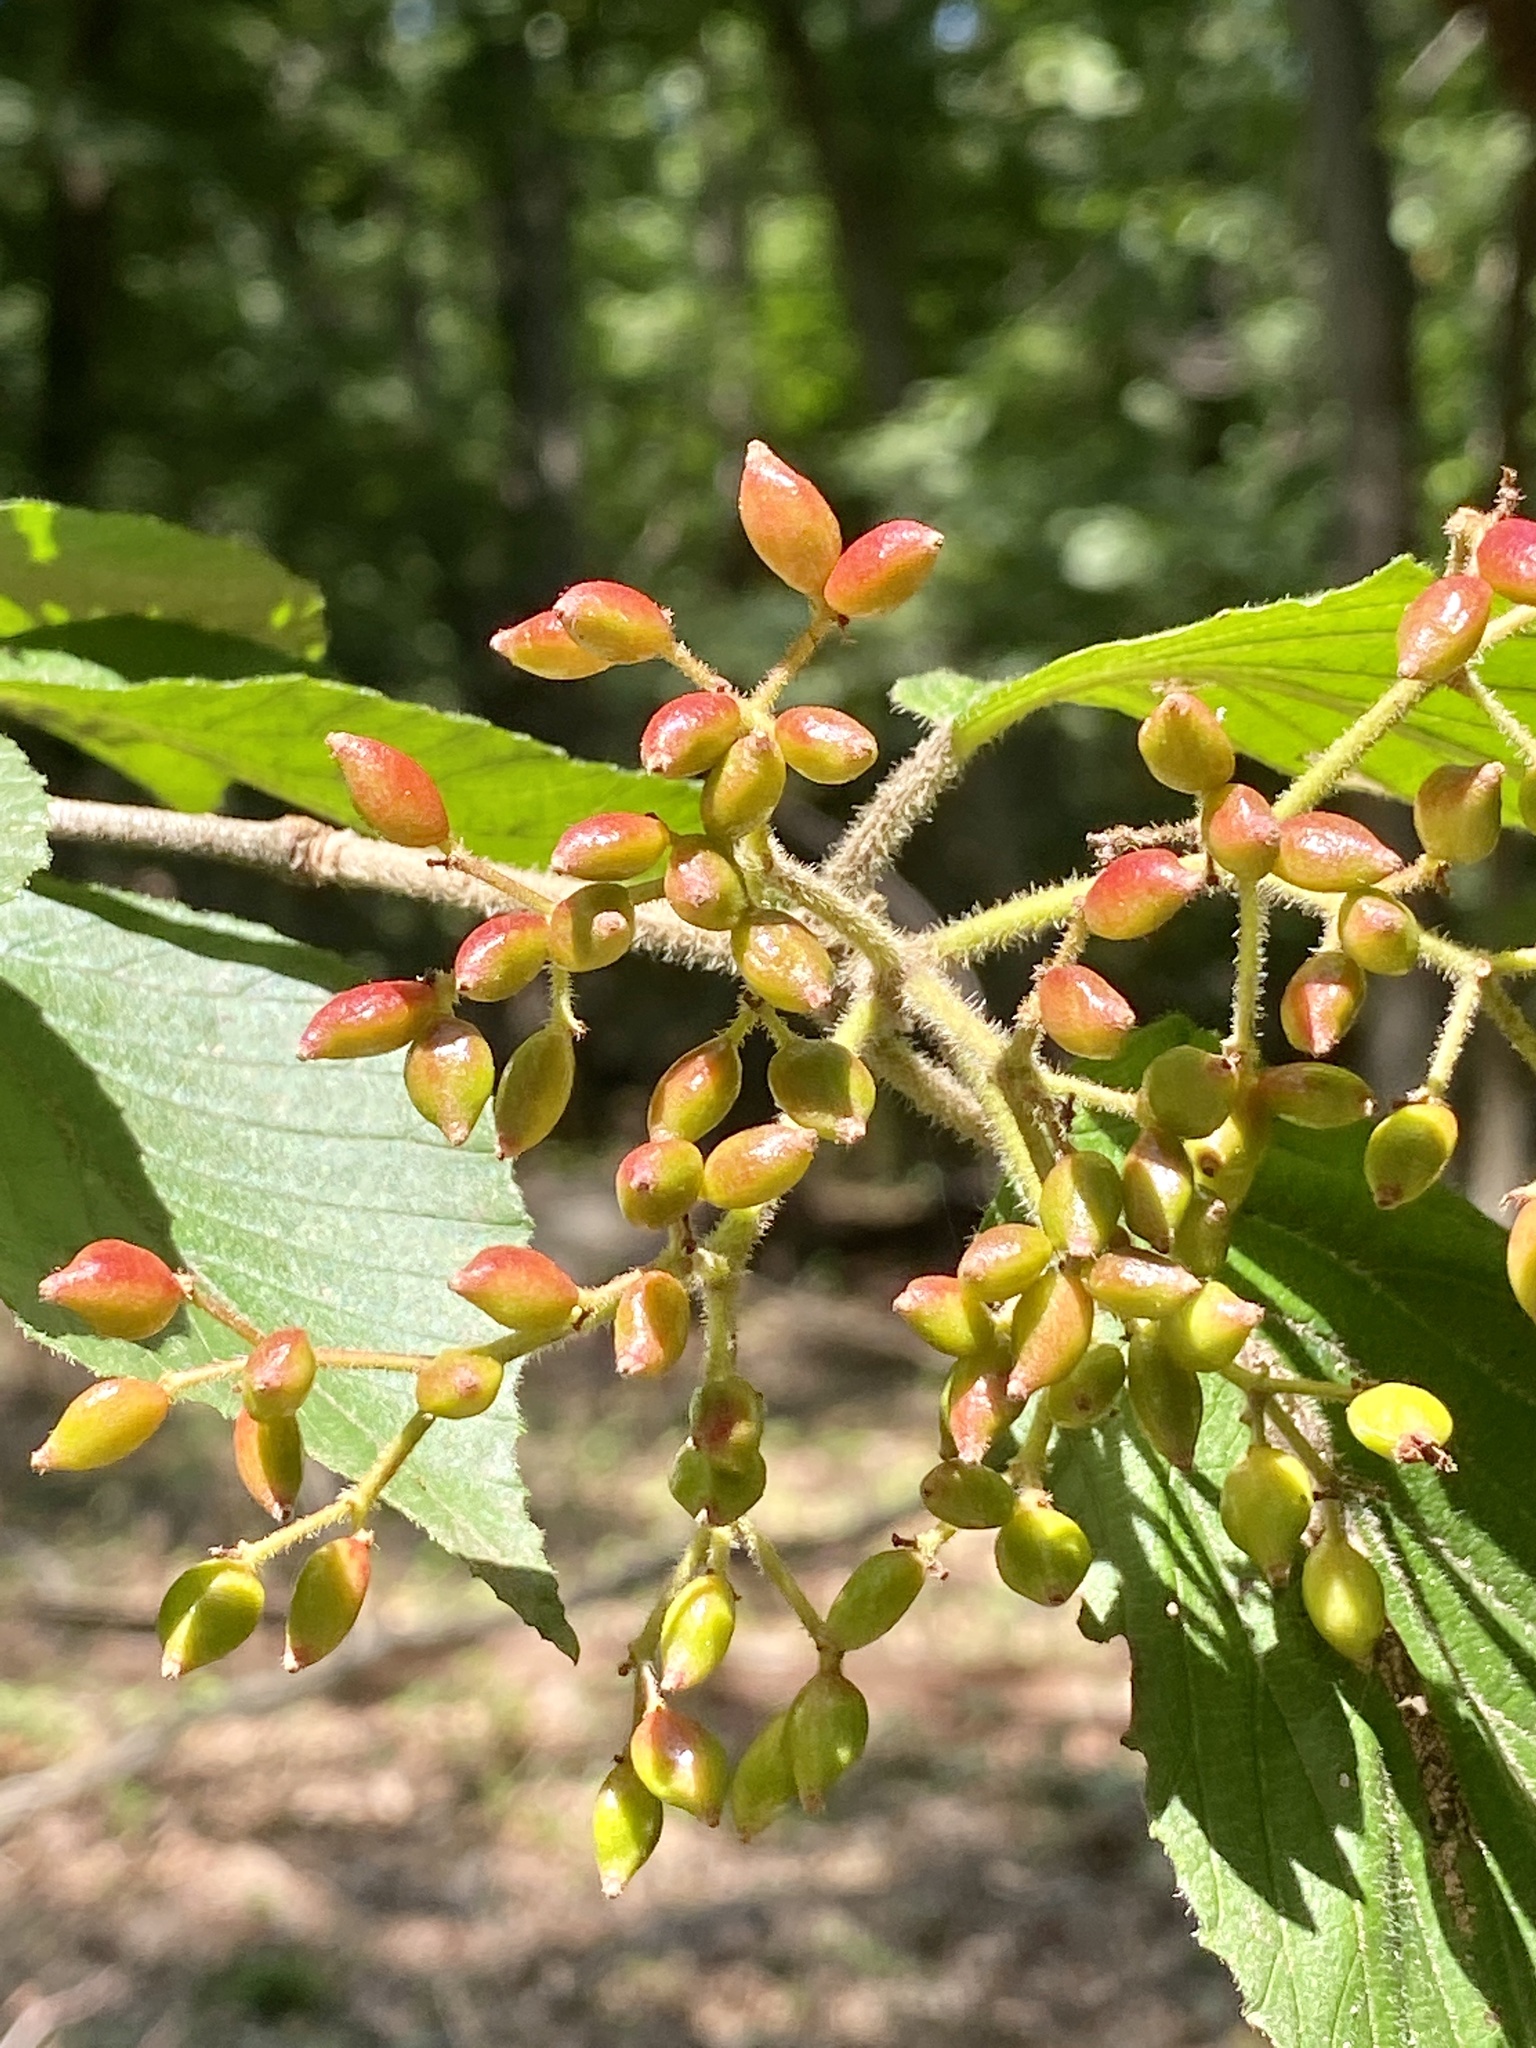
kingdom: Plantae
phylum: Tracheophyta
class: Magnoliopsida
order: Dipsacales
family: Viburnaceae
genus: Viburnum
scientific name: Viburnum dilatatum
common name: Linden arrowwood
